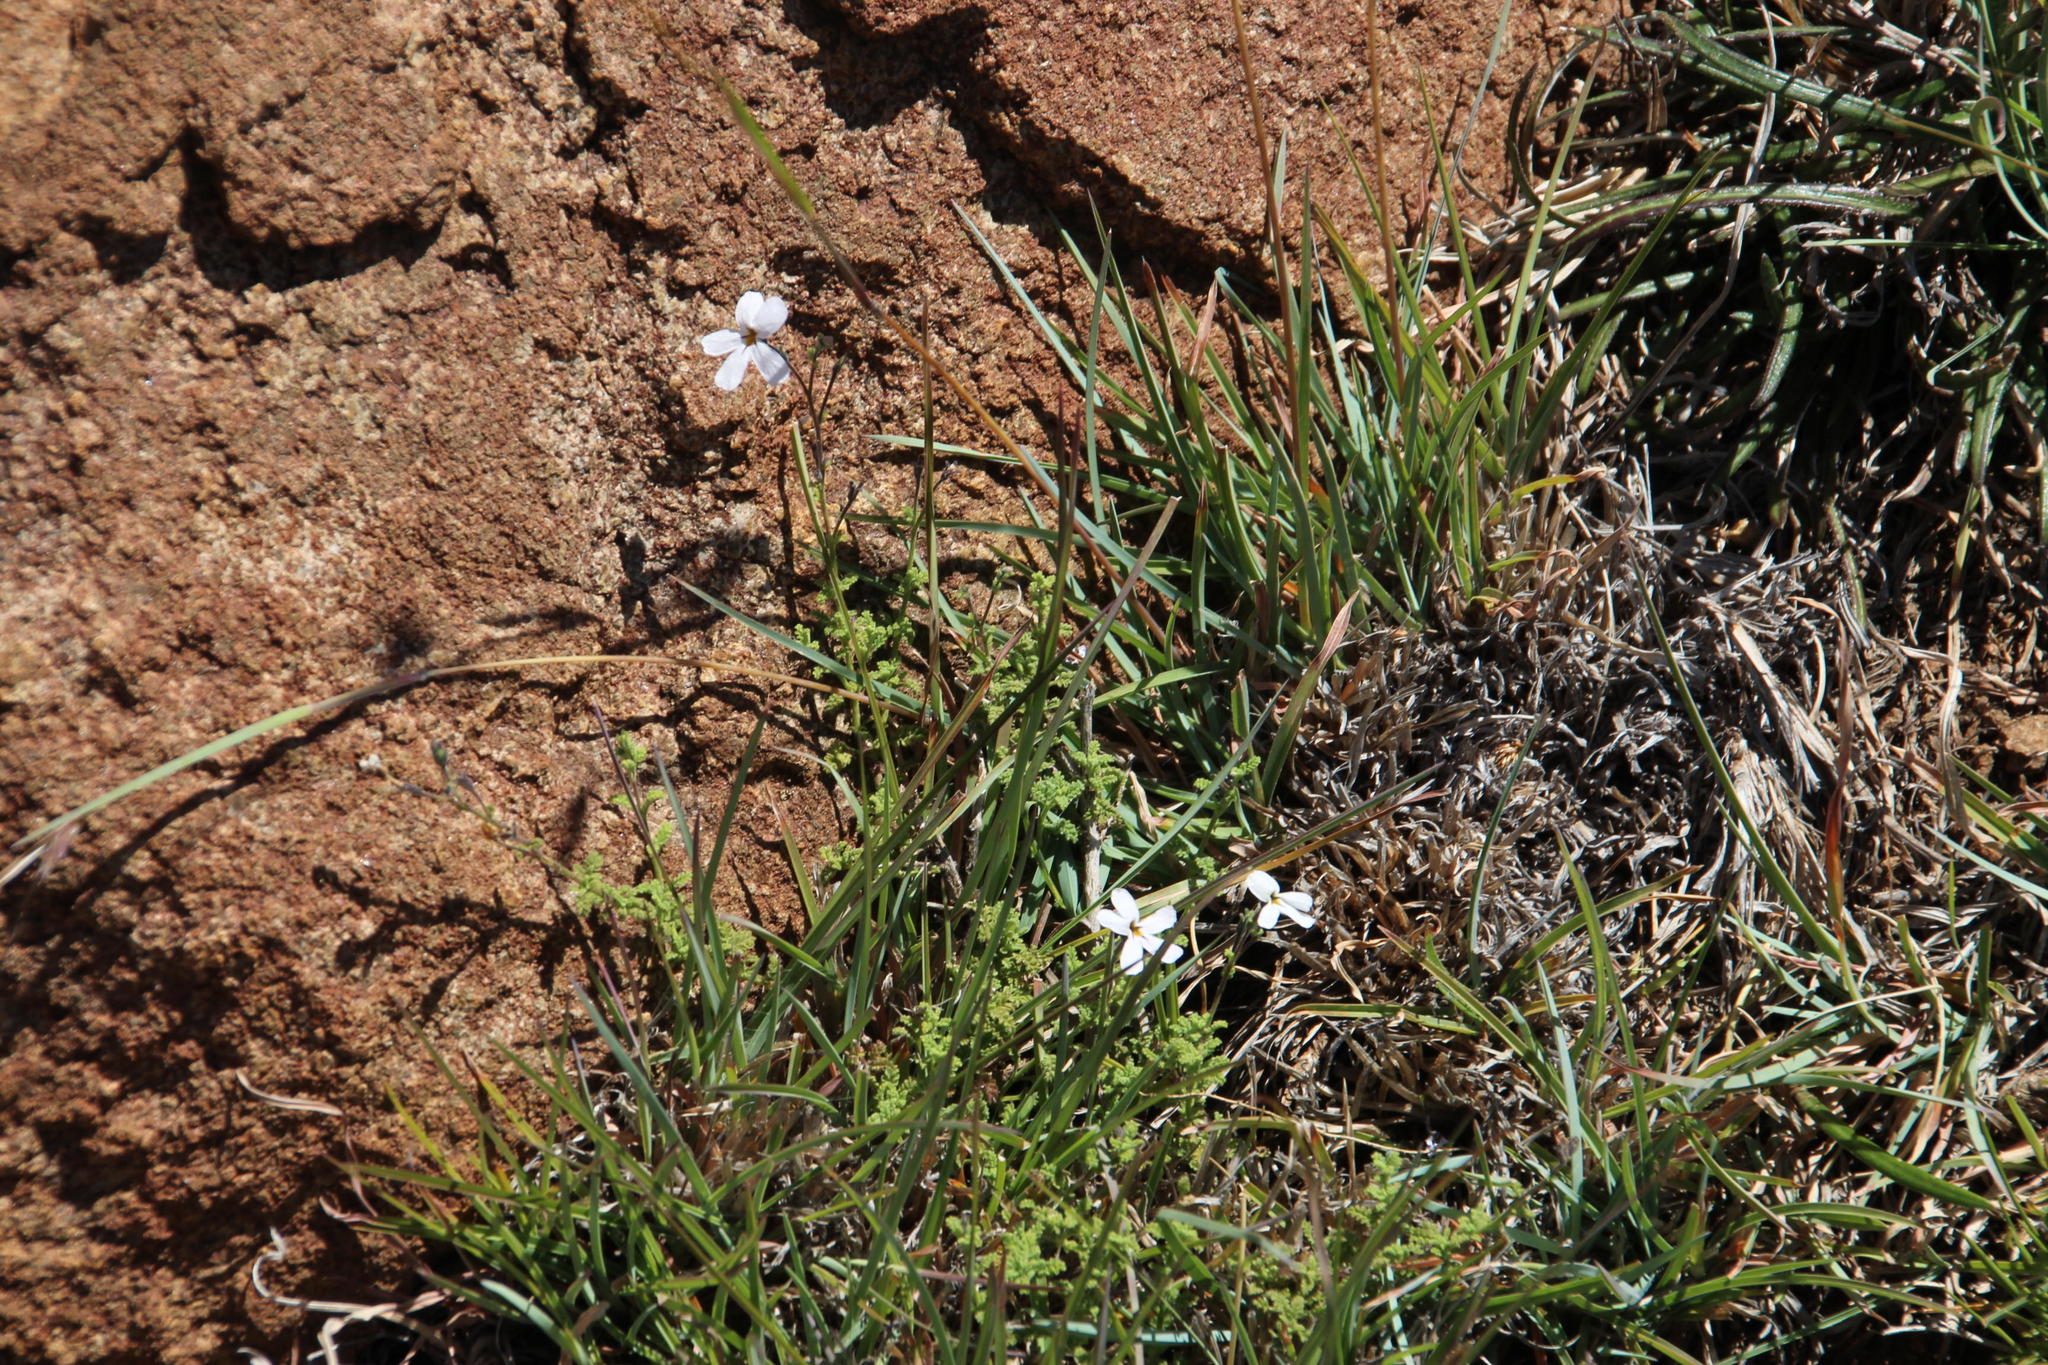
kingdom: Plantae
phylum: Tracheophyta
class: Magnoliopsida
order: Lamiales
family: Scrophulariaceae
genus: Jamesbrittenia
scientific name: Jamesbrittenia tysonii
